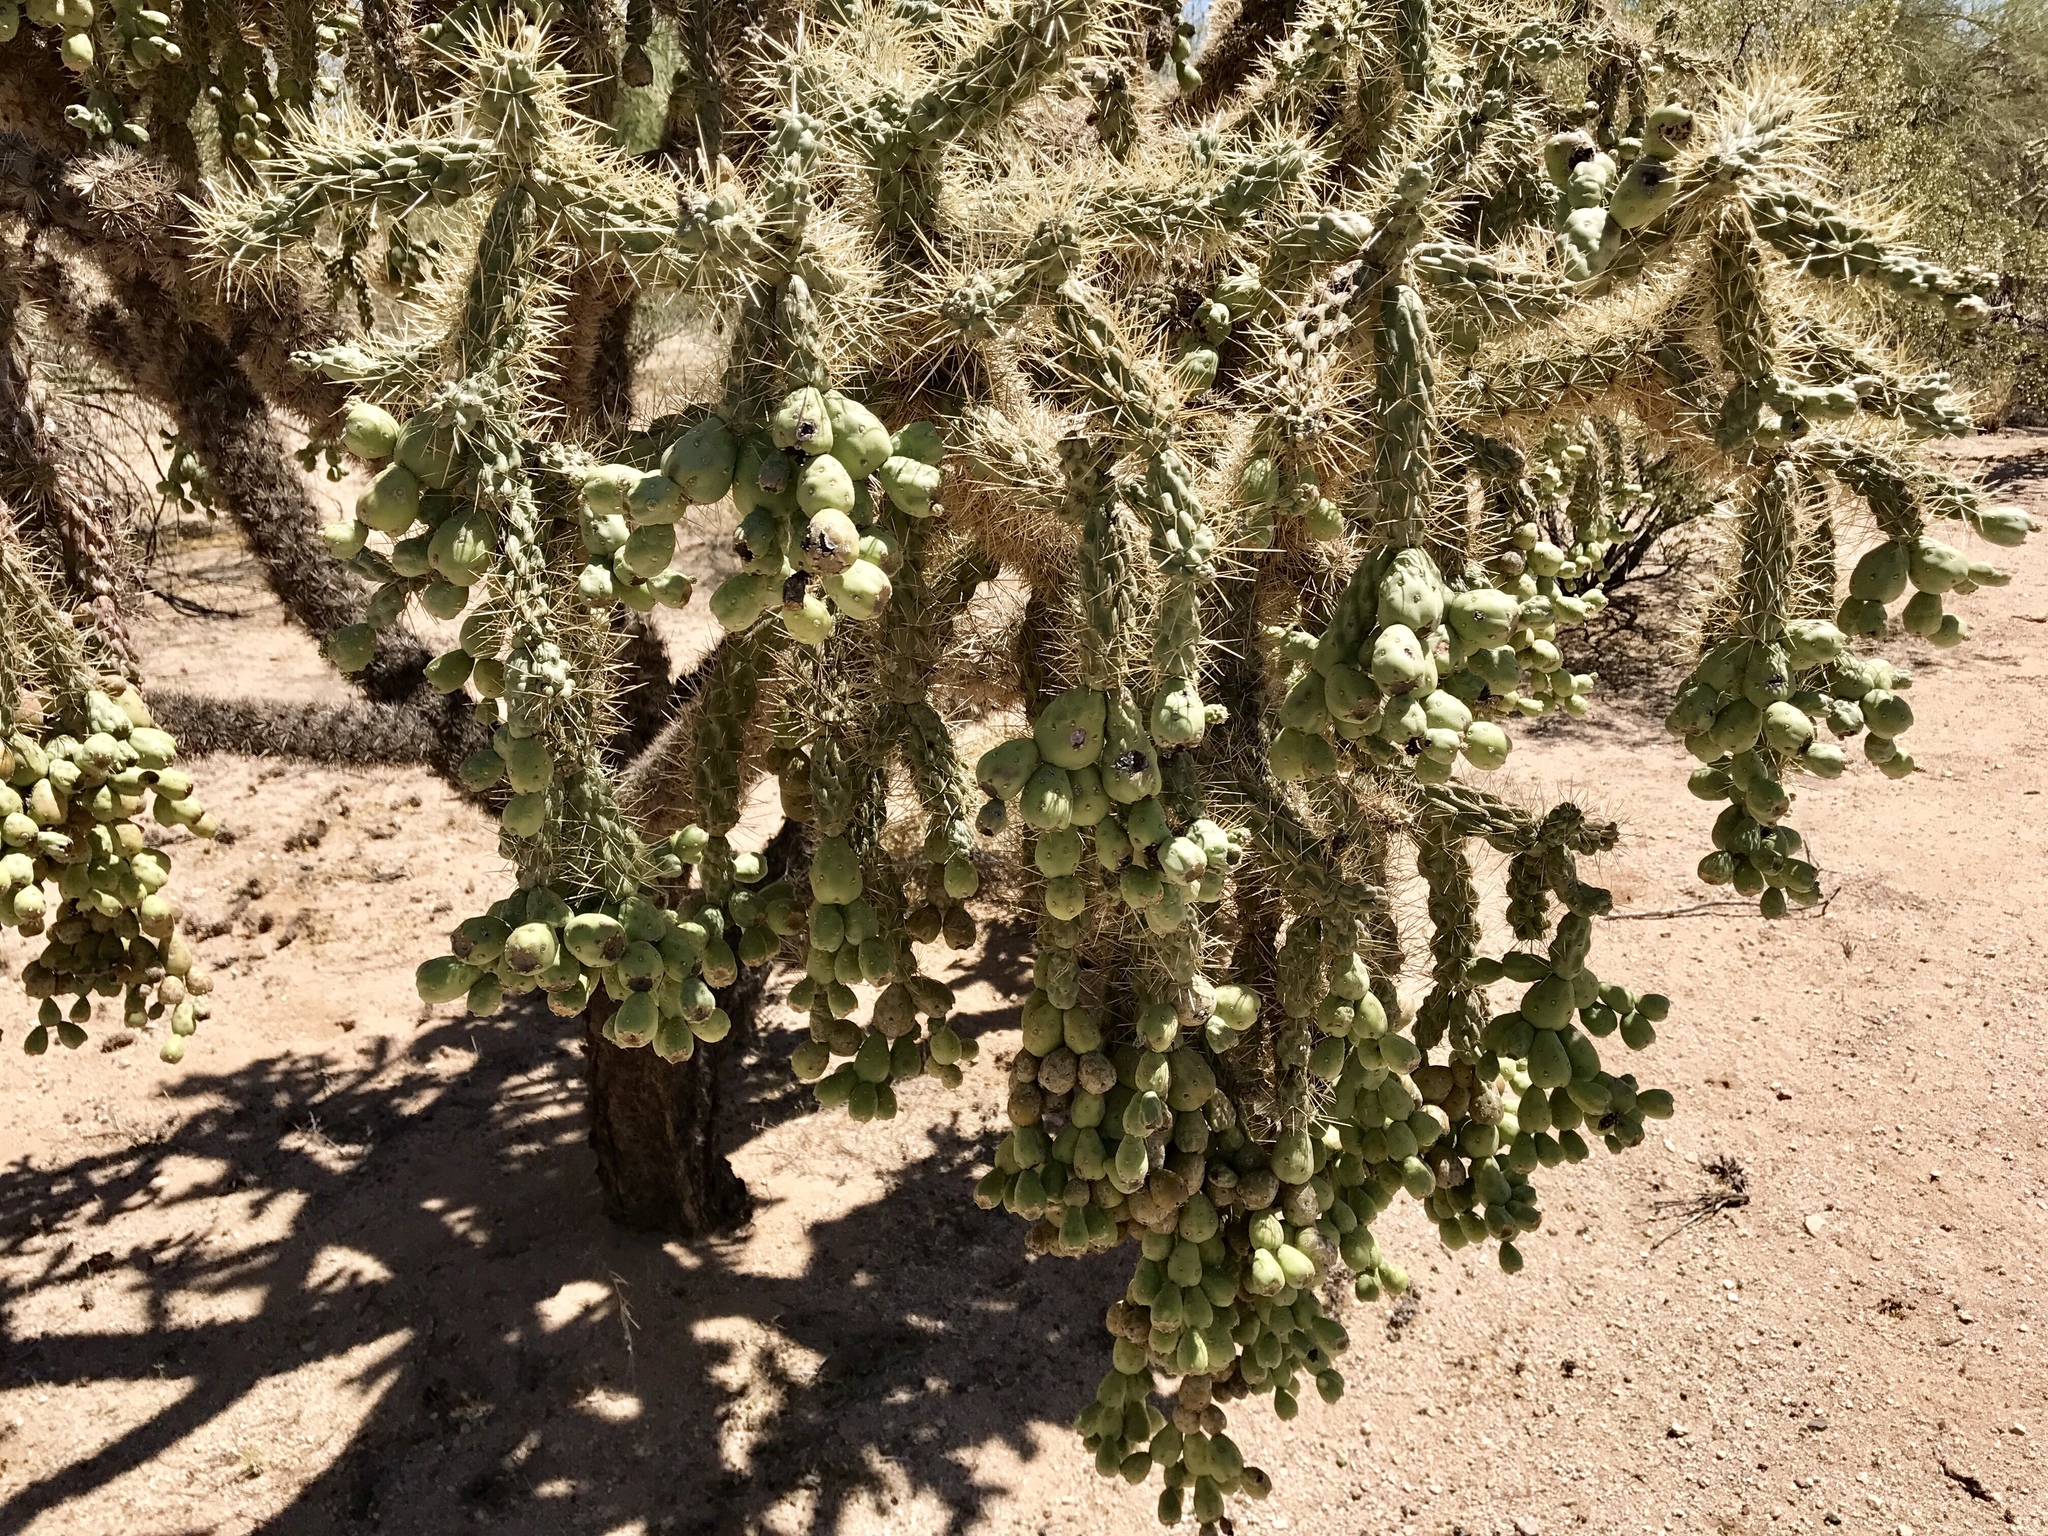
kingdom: Plantae
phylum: Tracheophyta
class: Magnoliopsida
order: Caryophyllales
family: Cactaceae
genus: Cylindropuntia
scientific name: Cylindropuntia fulgida
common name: Jumping cholla
